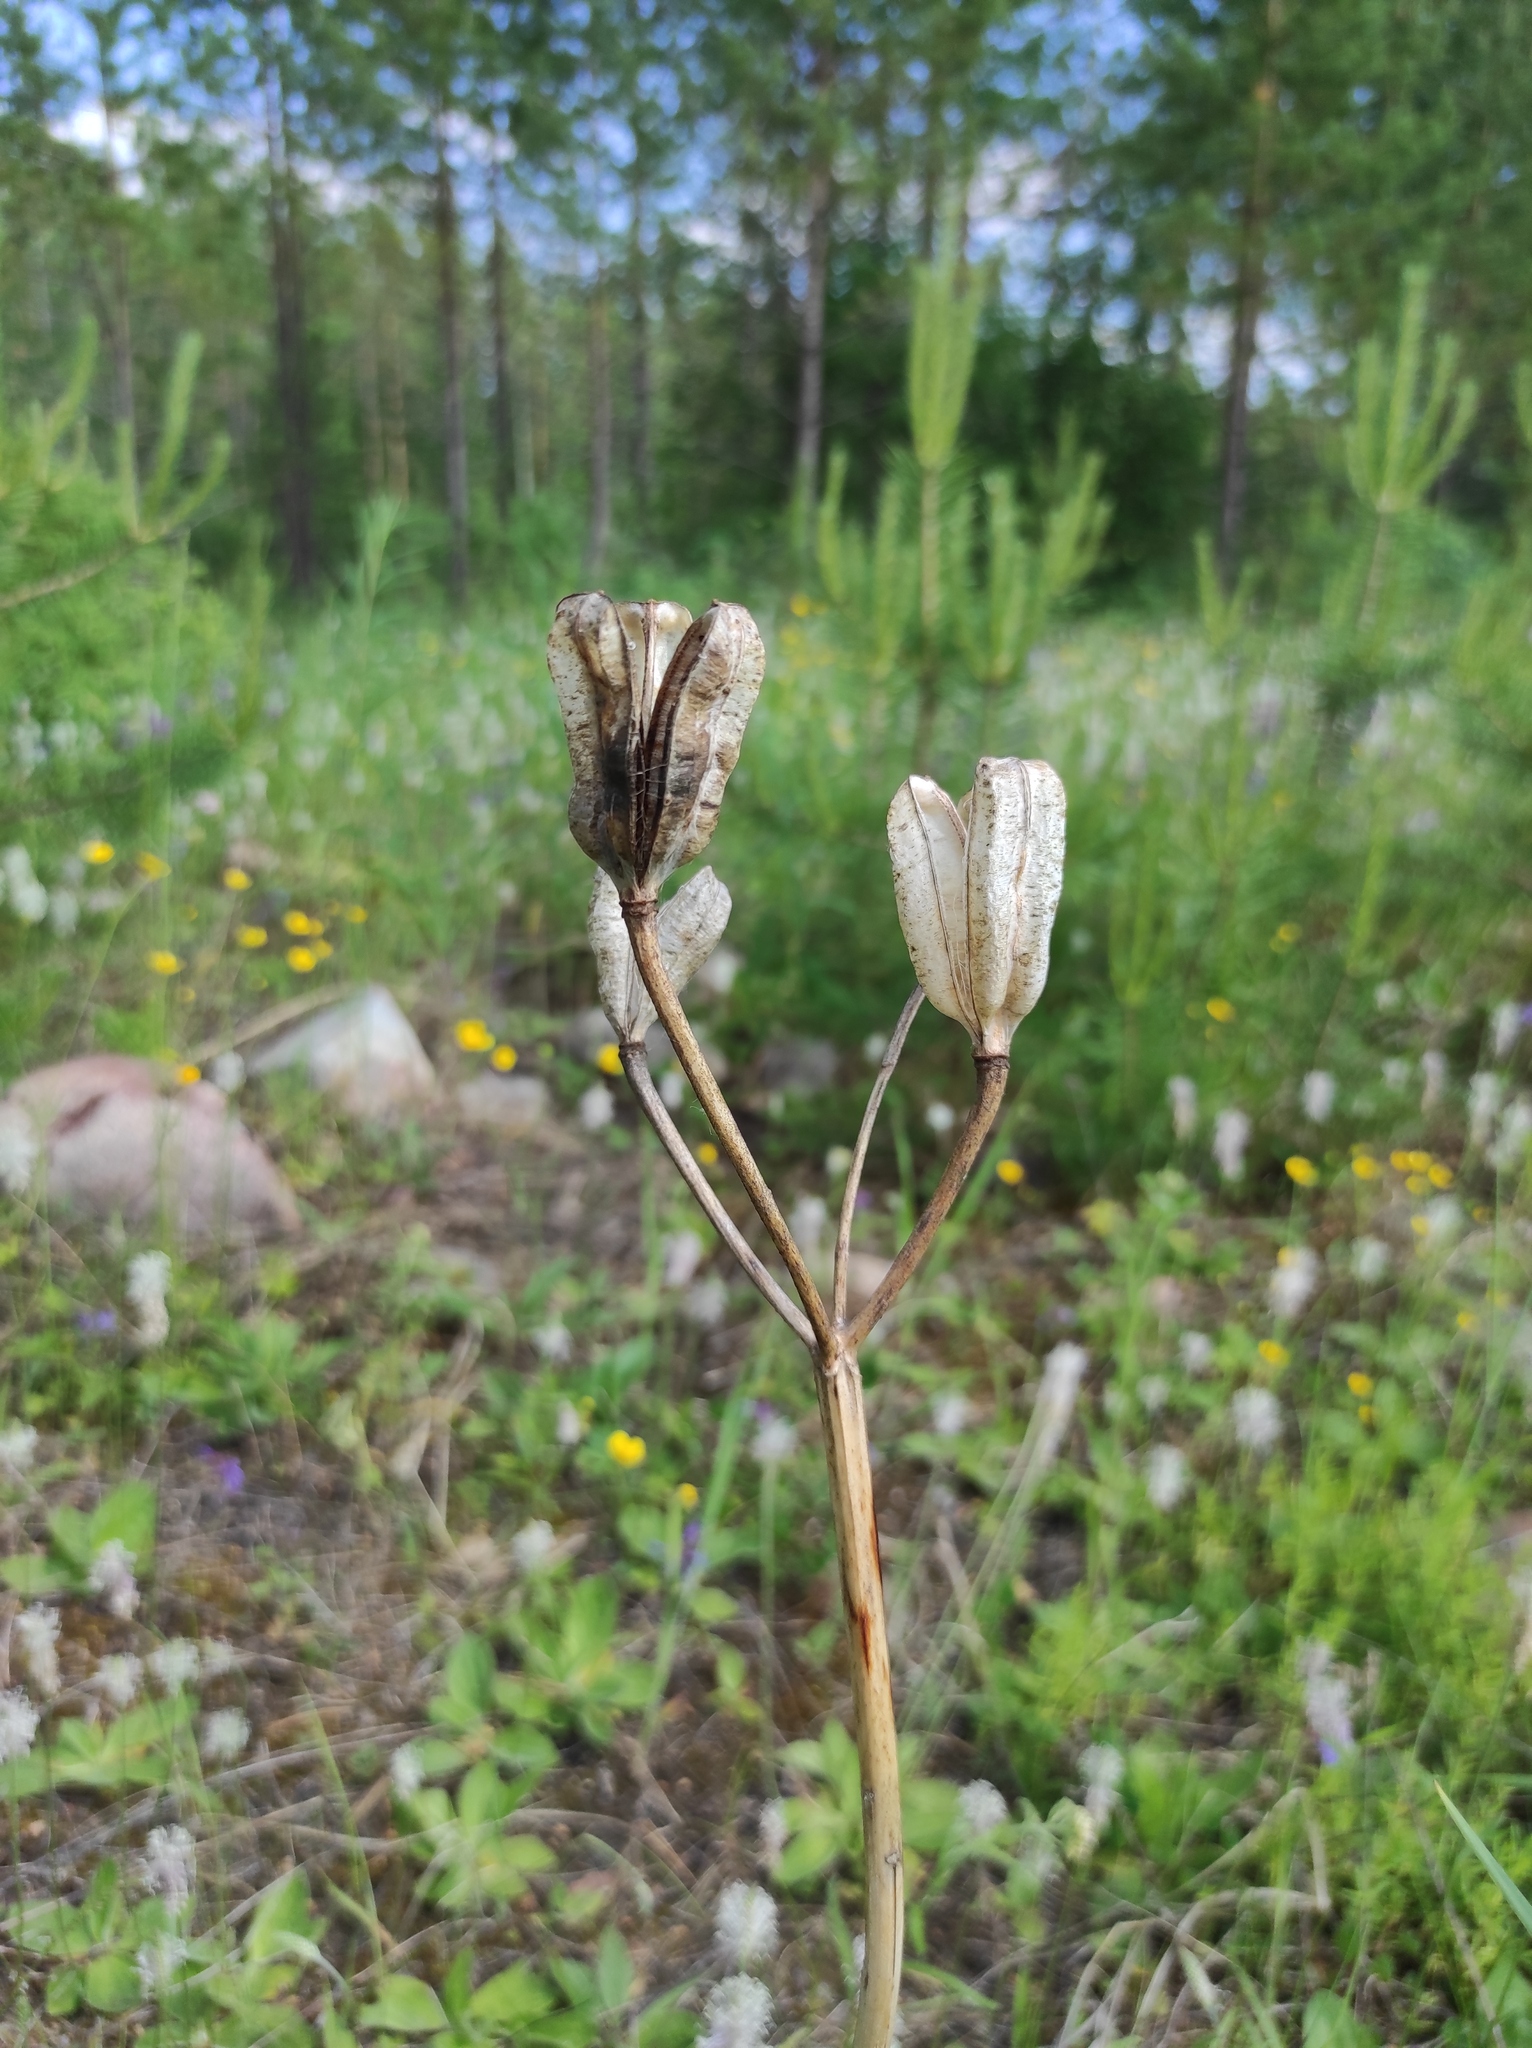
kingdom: Plantae
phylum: Tracheophyta
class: Liliopsida
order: Liliales
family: Liliaceae
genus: Lilium
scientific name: Lilium pensylvanicum
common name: Candlestick lily
